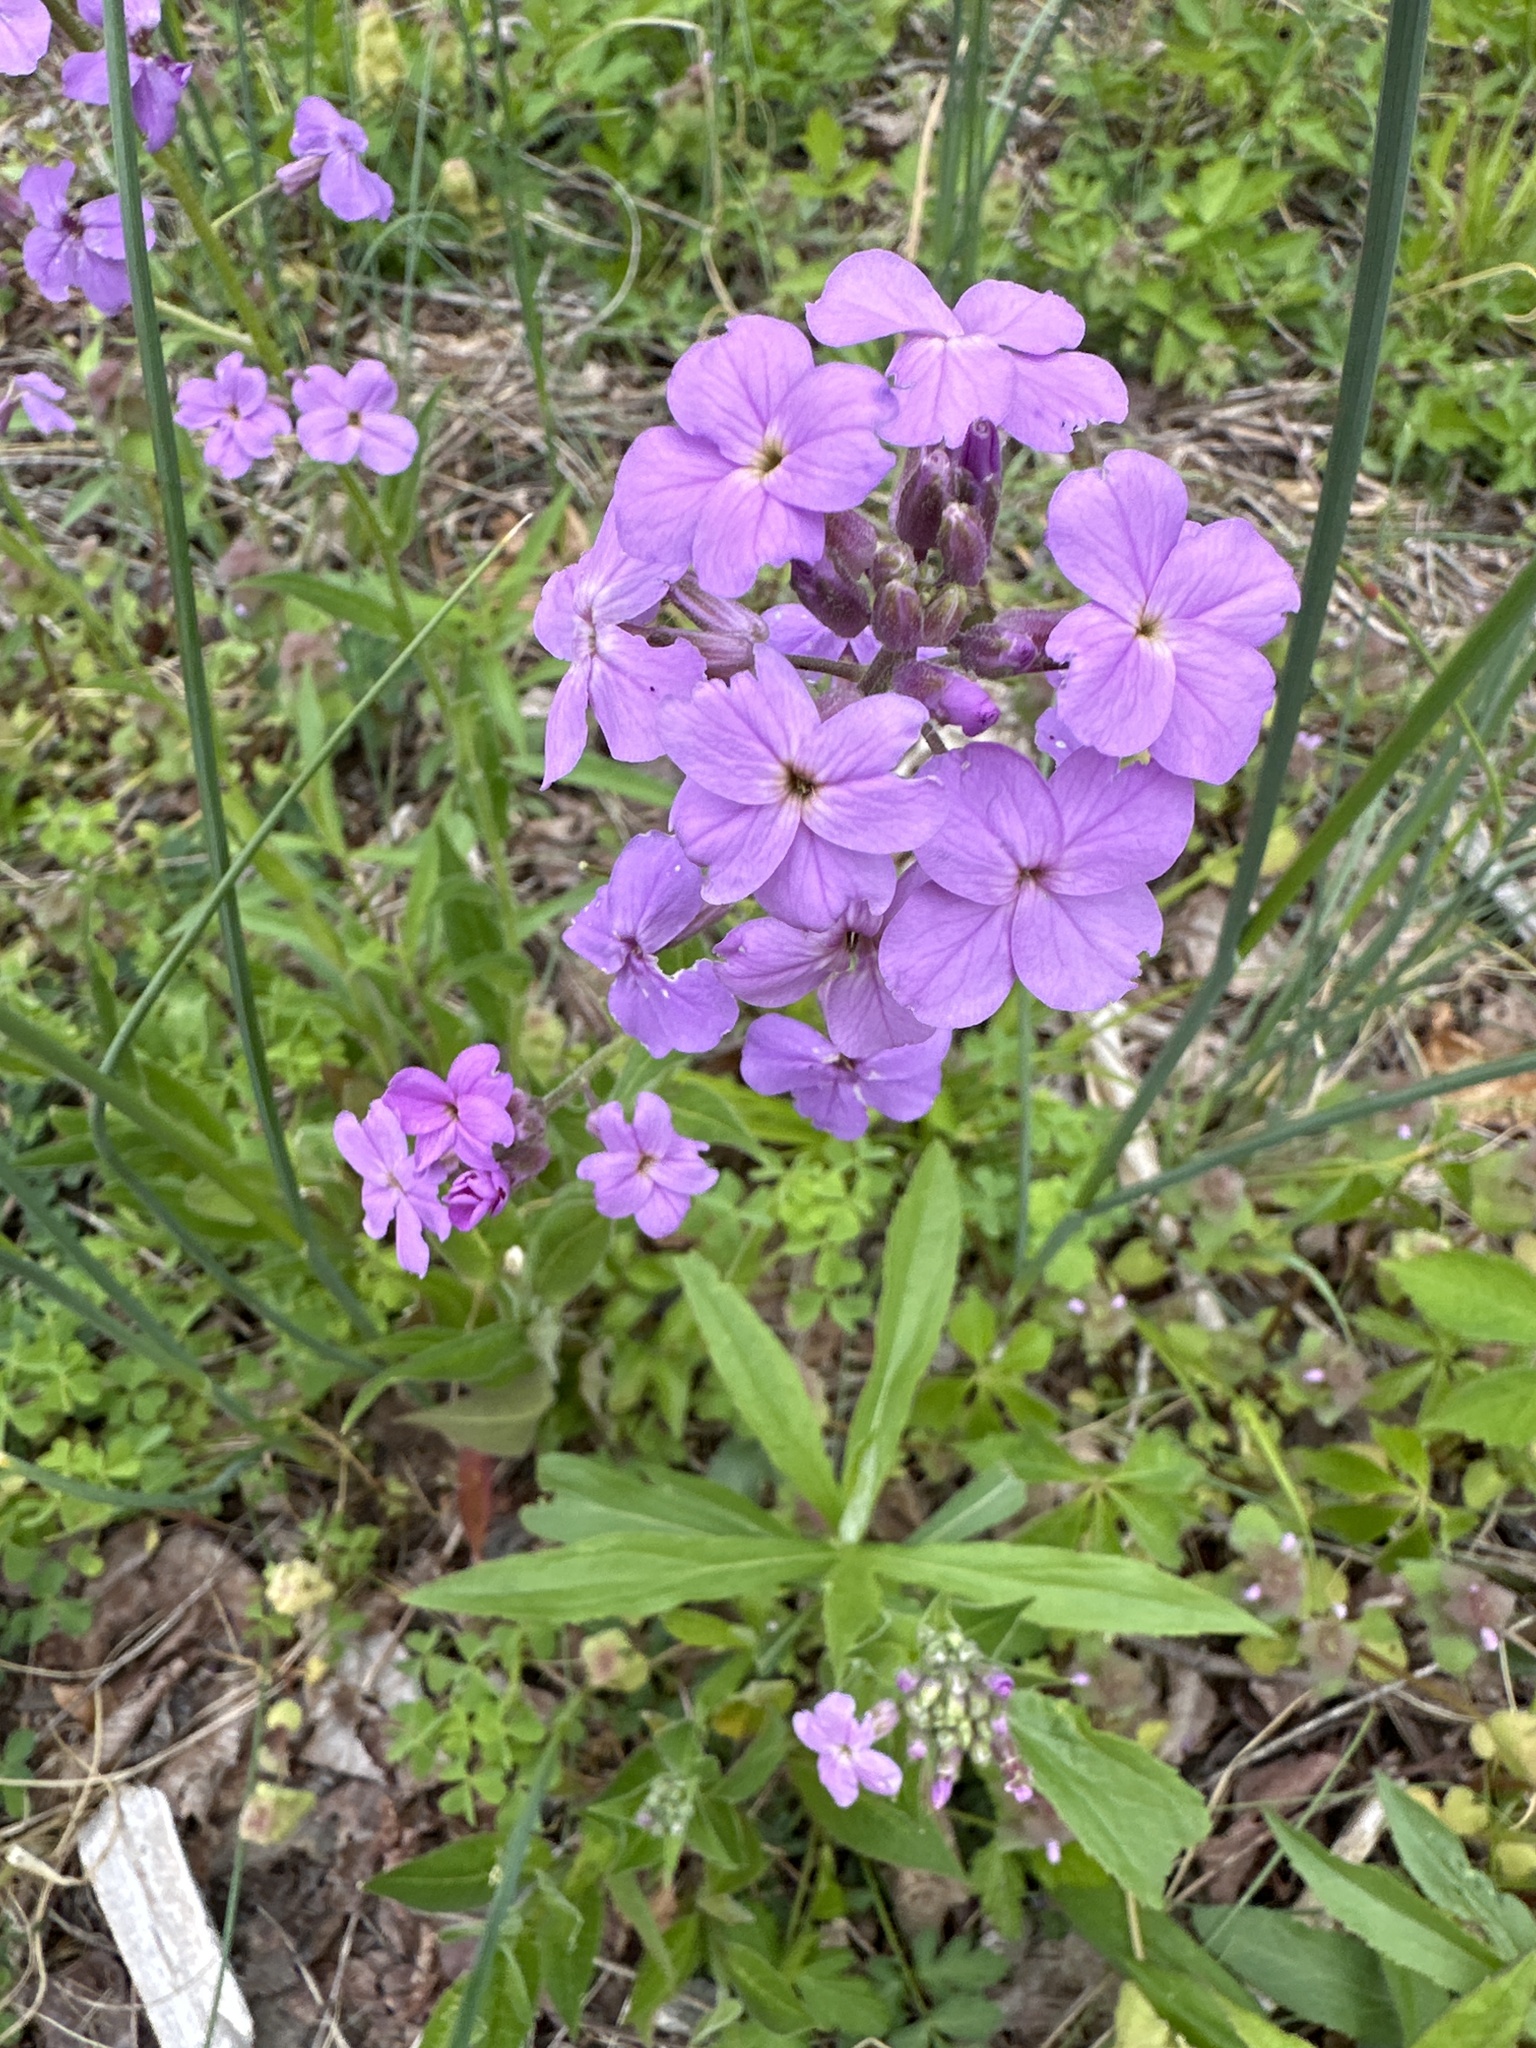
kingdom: Plantae
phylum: Tracheophyta
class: Magnoliopsida
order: Brassicales
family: Brassicaceae
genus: Hesperis
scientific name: Hesperis matronalis
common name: Dame's-violet
